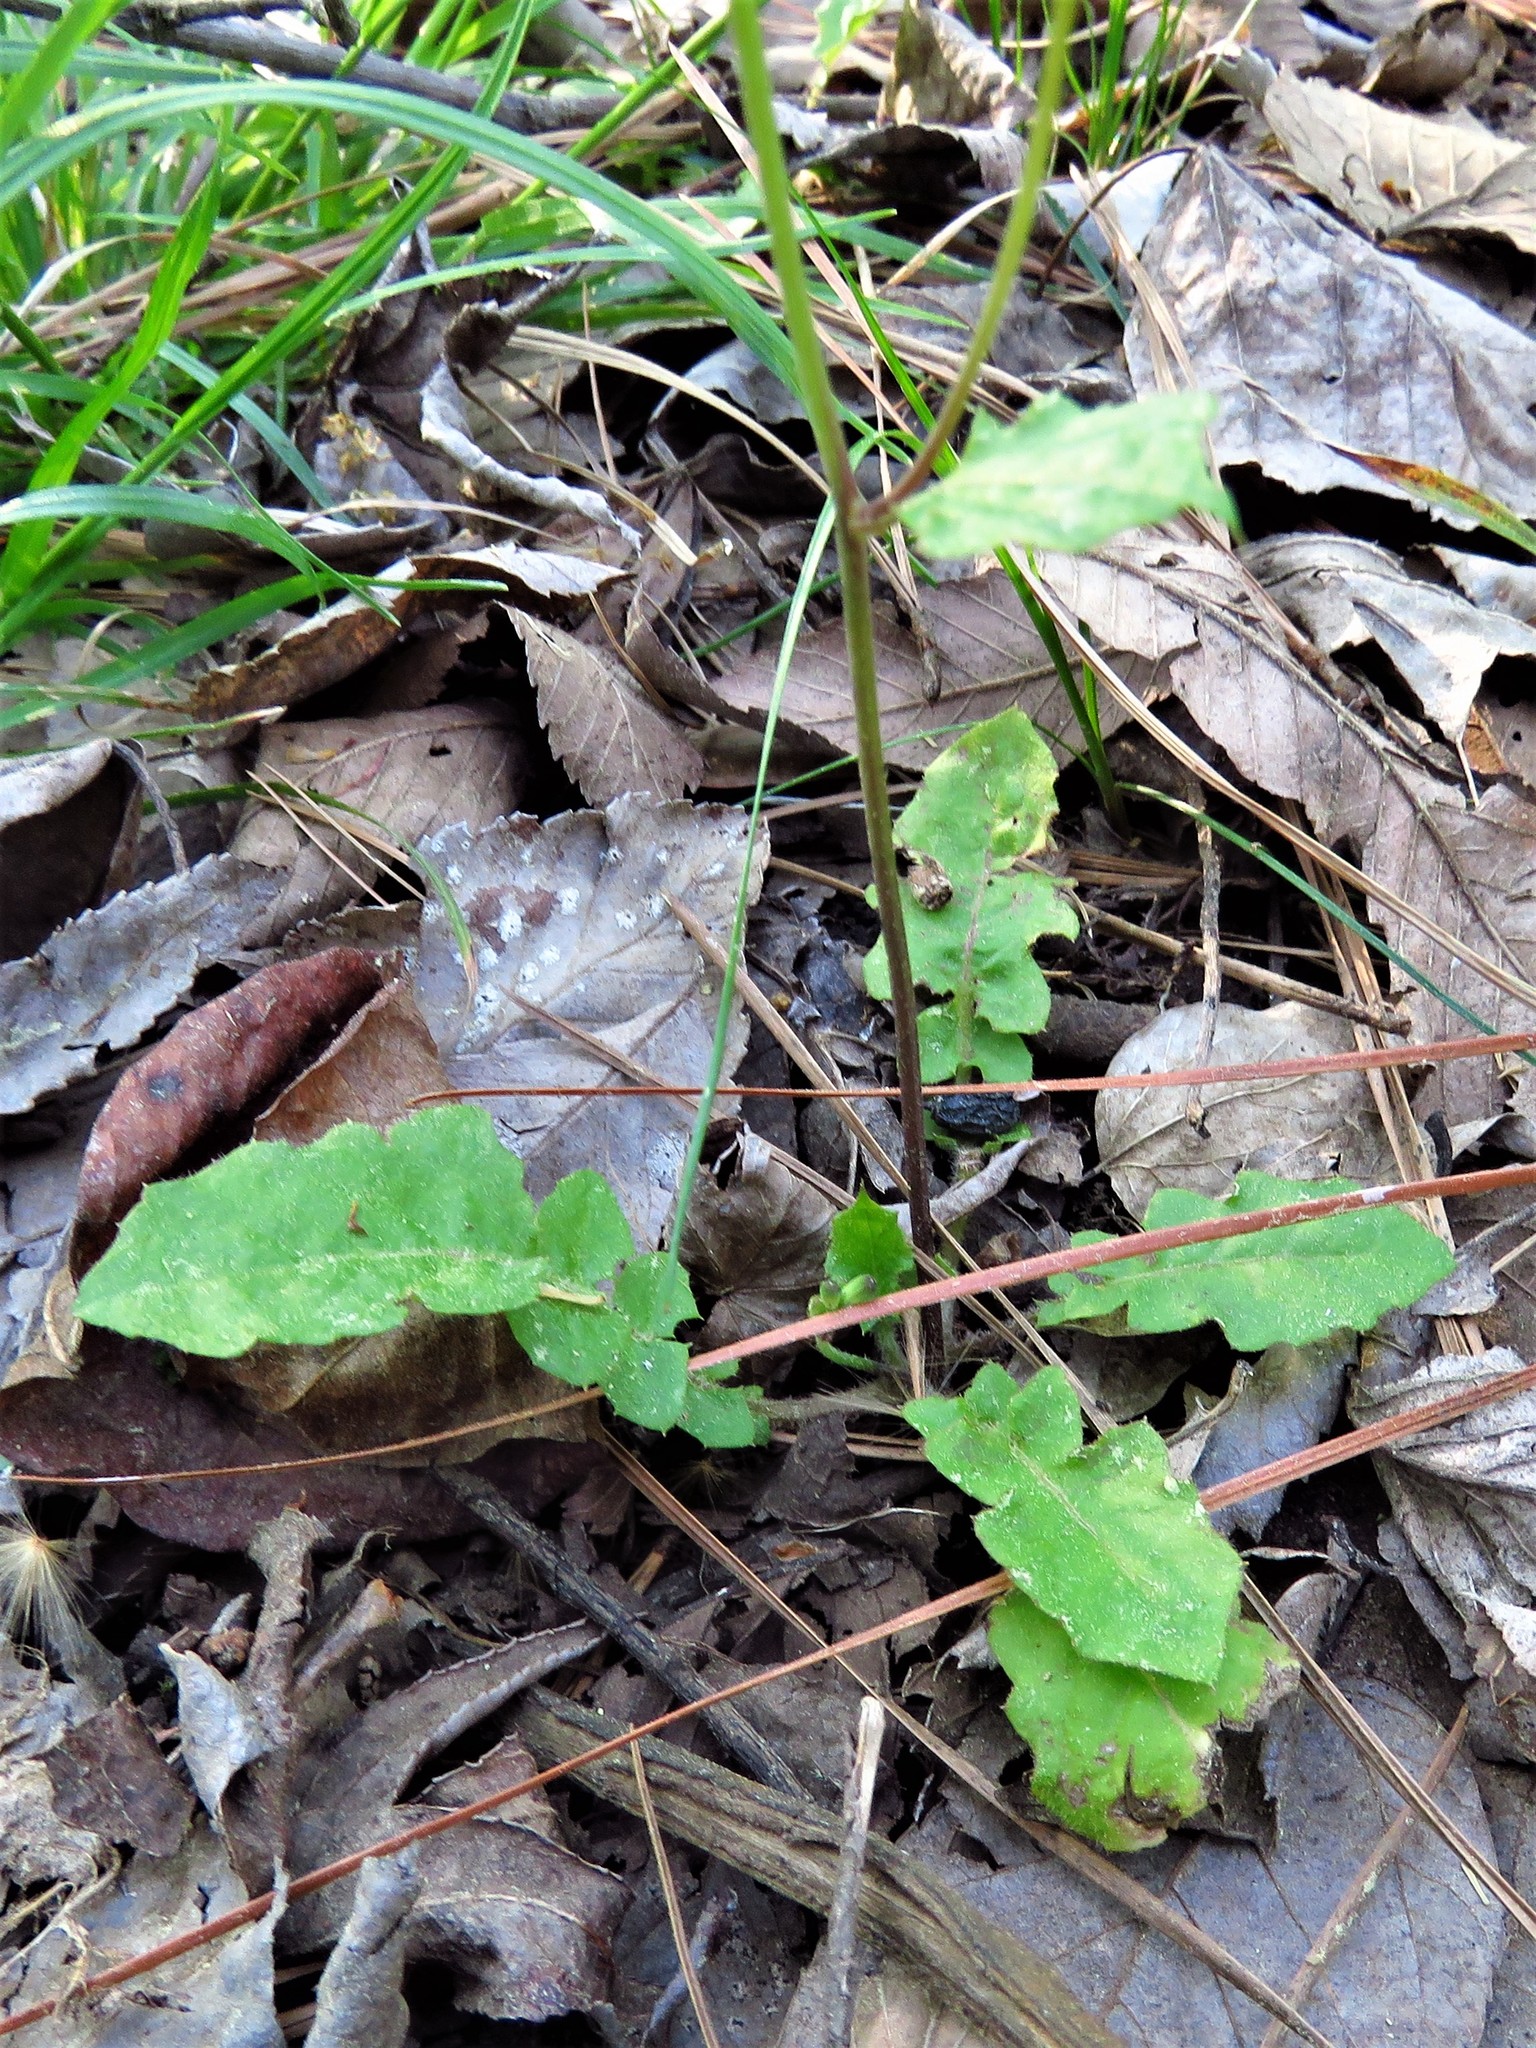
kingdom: Plantae
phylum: Tracheophyta
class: Magnoliopsida
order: Asterales
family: Asteraceae
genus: Youngia
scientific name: Youngia japonica
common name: Oriental false hawksbeard
